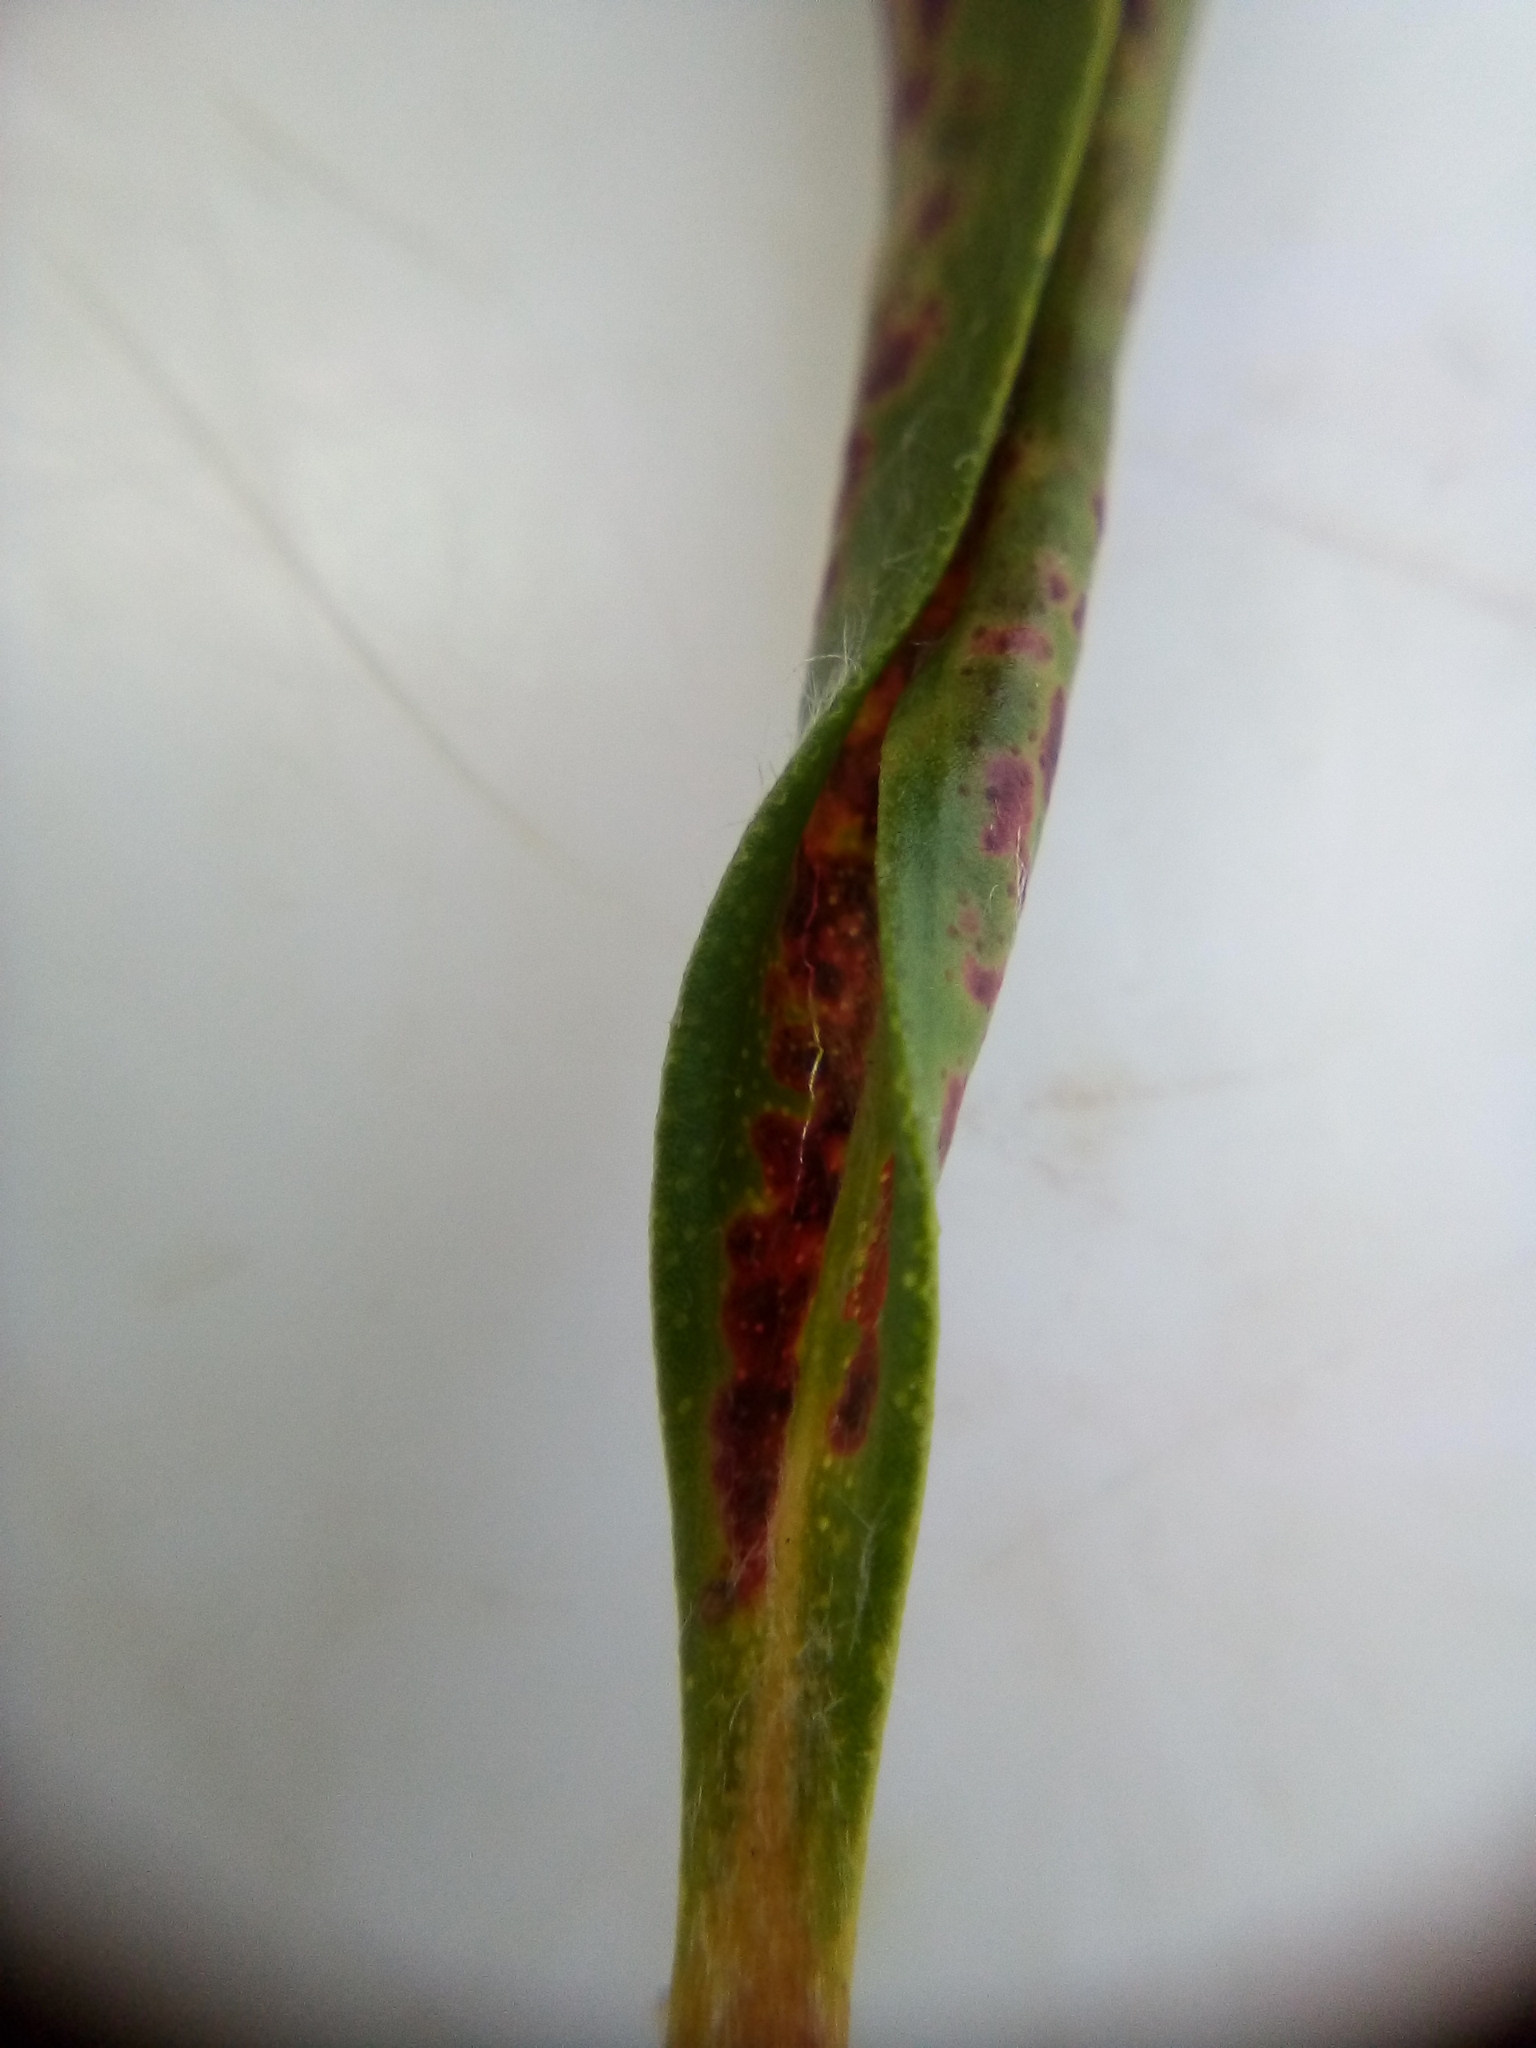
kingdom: Animalia
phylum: Arthropoda
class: Insecta
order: Hemiptera
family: Anthocoridae
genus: Macrotrachelia
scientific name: Macrotrachelia nigronitens
